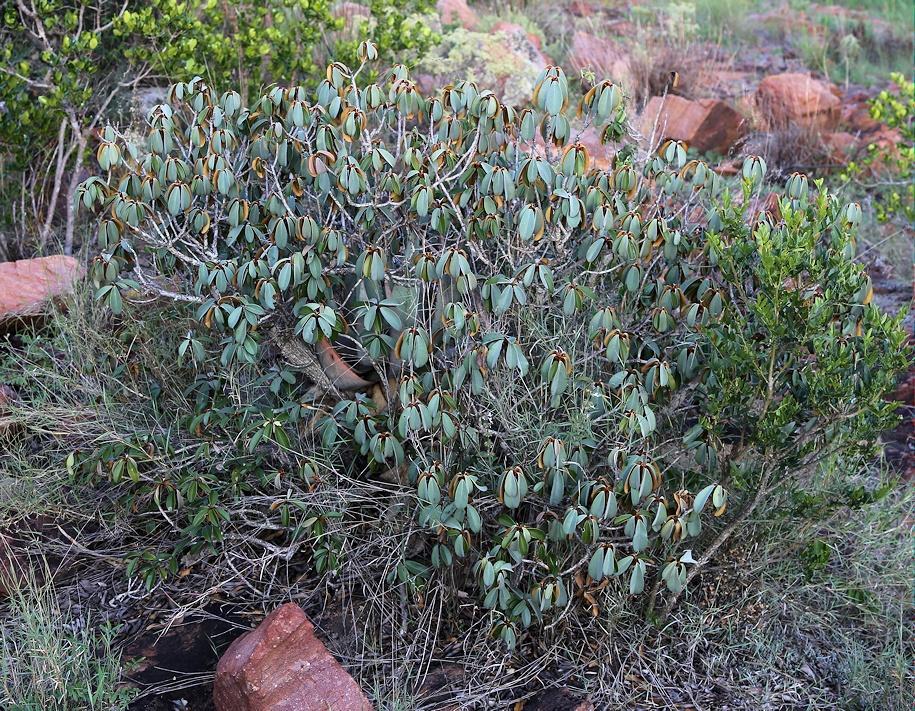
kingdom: Plantae
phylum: Tracheophyta
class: Magnoliopsida
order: Ericales
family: Sapotaceae
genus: Englerophytum
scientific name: Englerophytum magalismontanum
